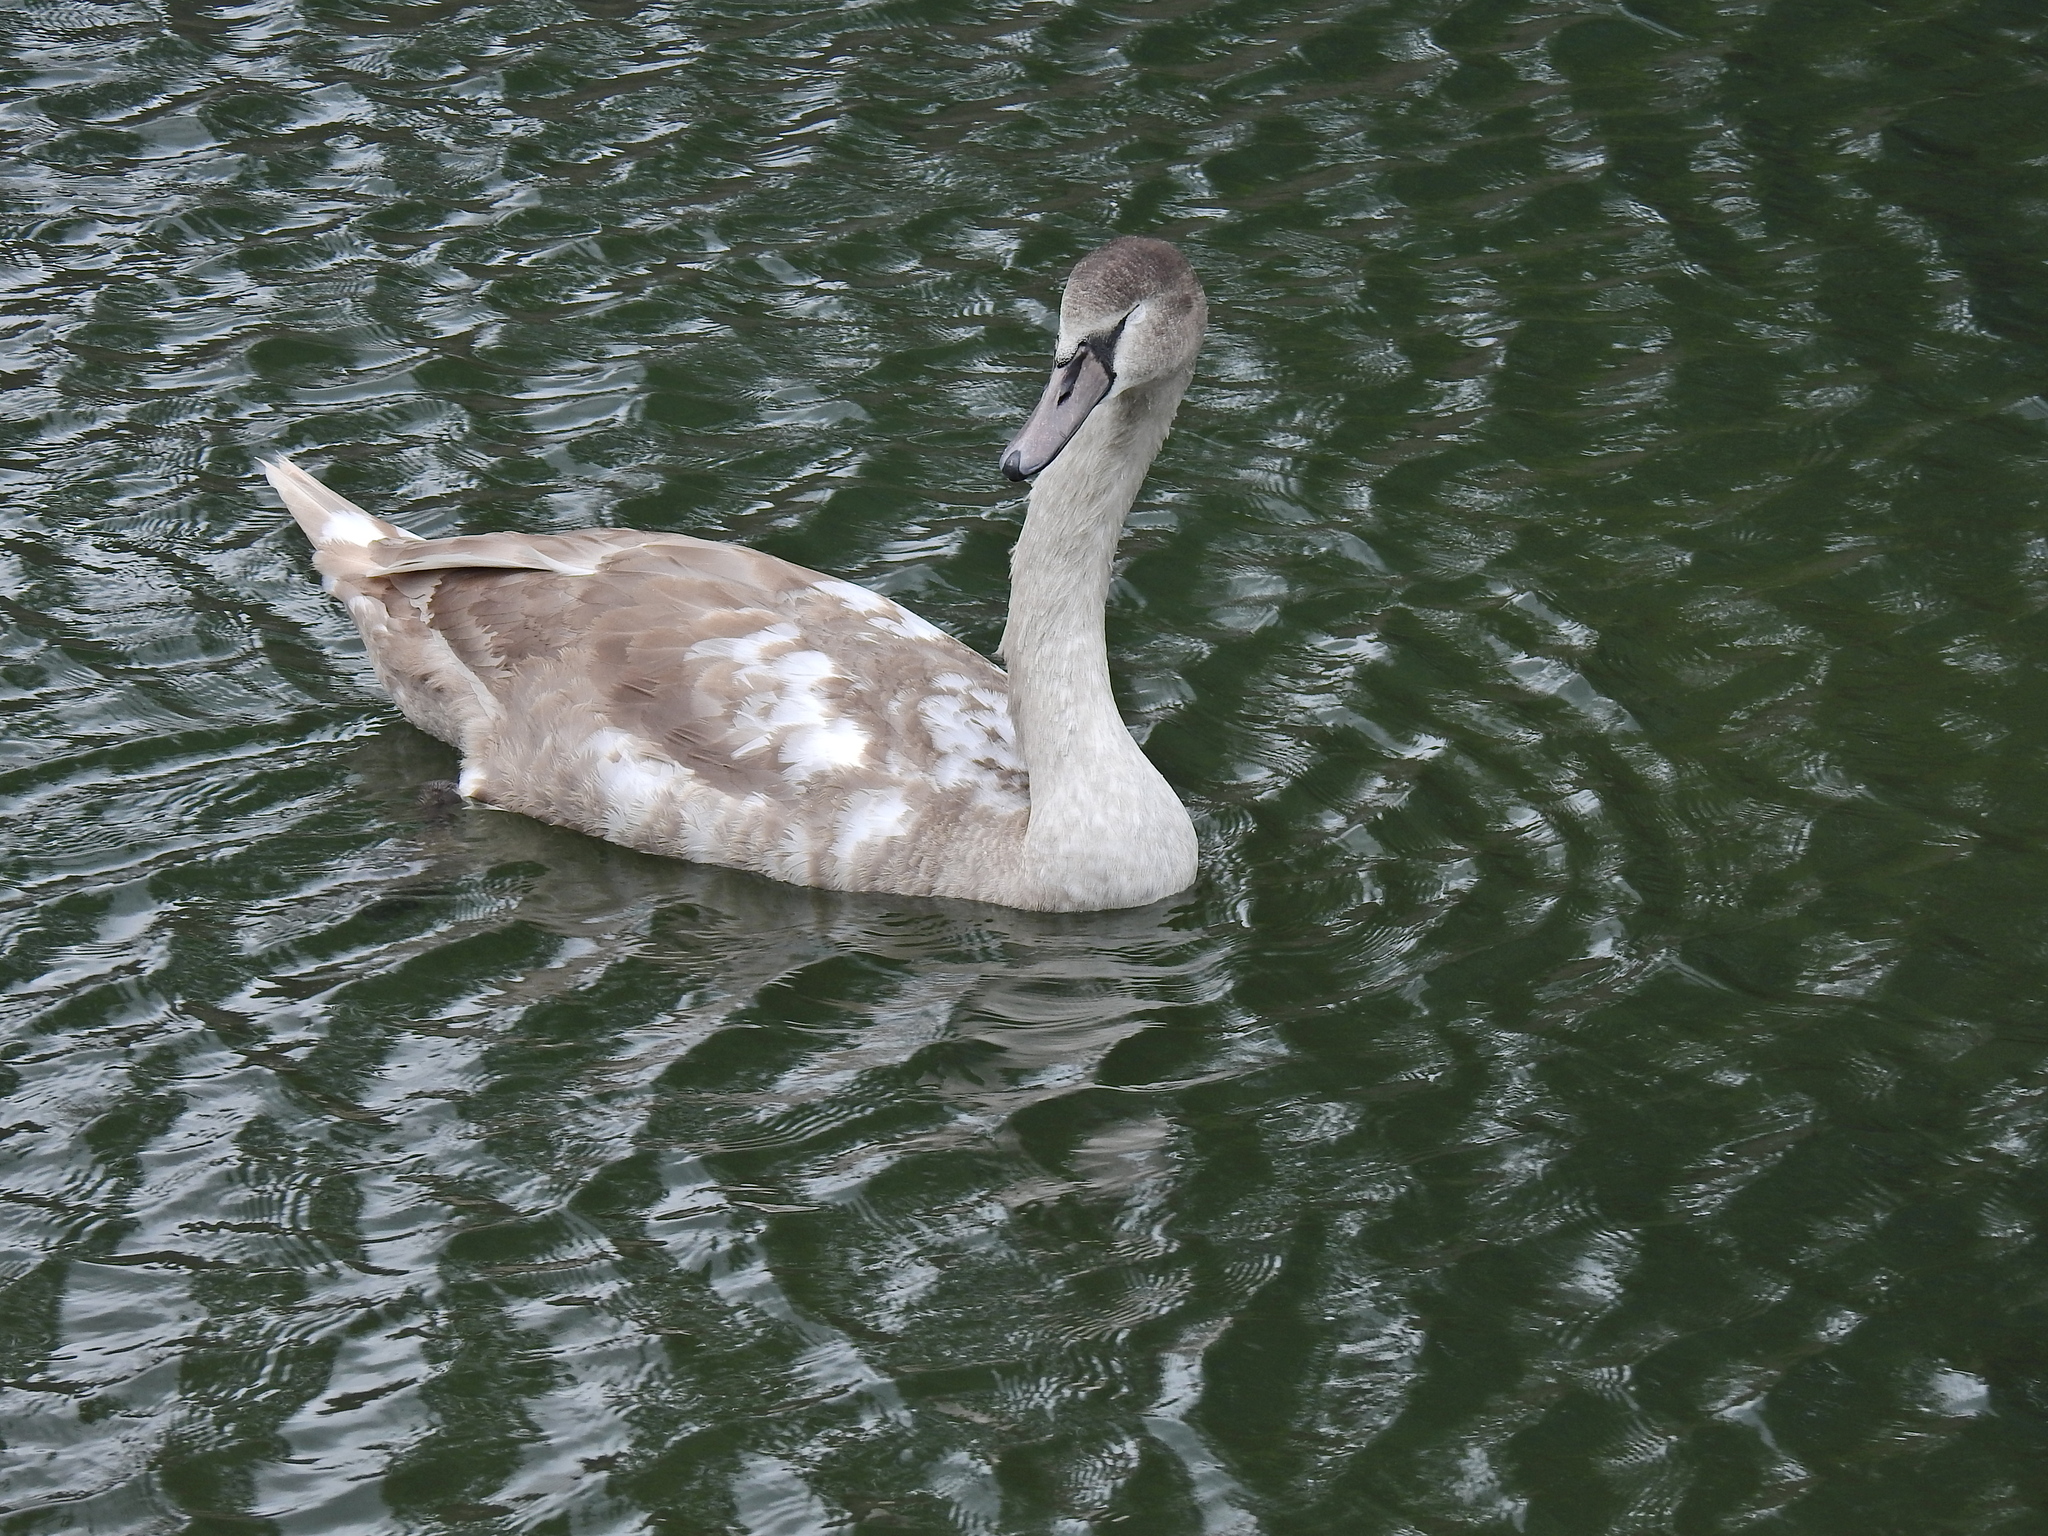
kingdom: Animalia
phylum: Chordata
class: Aves
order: Anseriformes
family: Anatidae
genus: Cygnus
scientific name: Cygnus olor
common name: Mute swan
